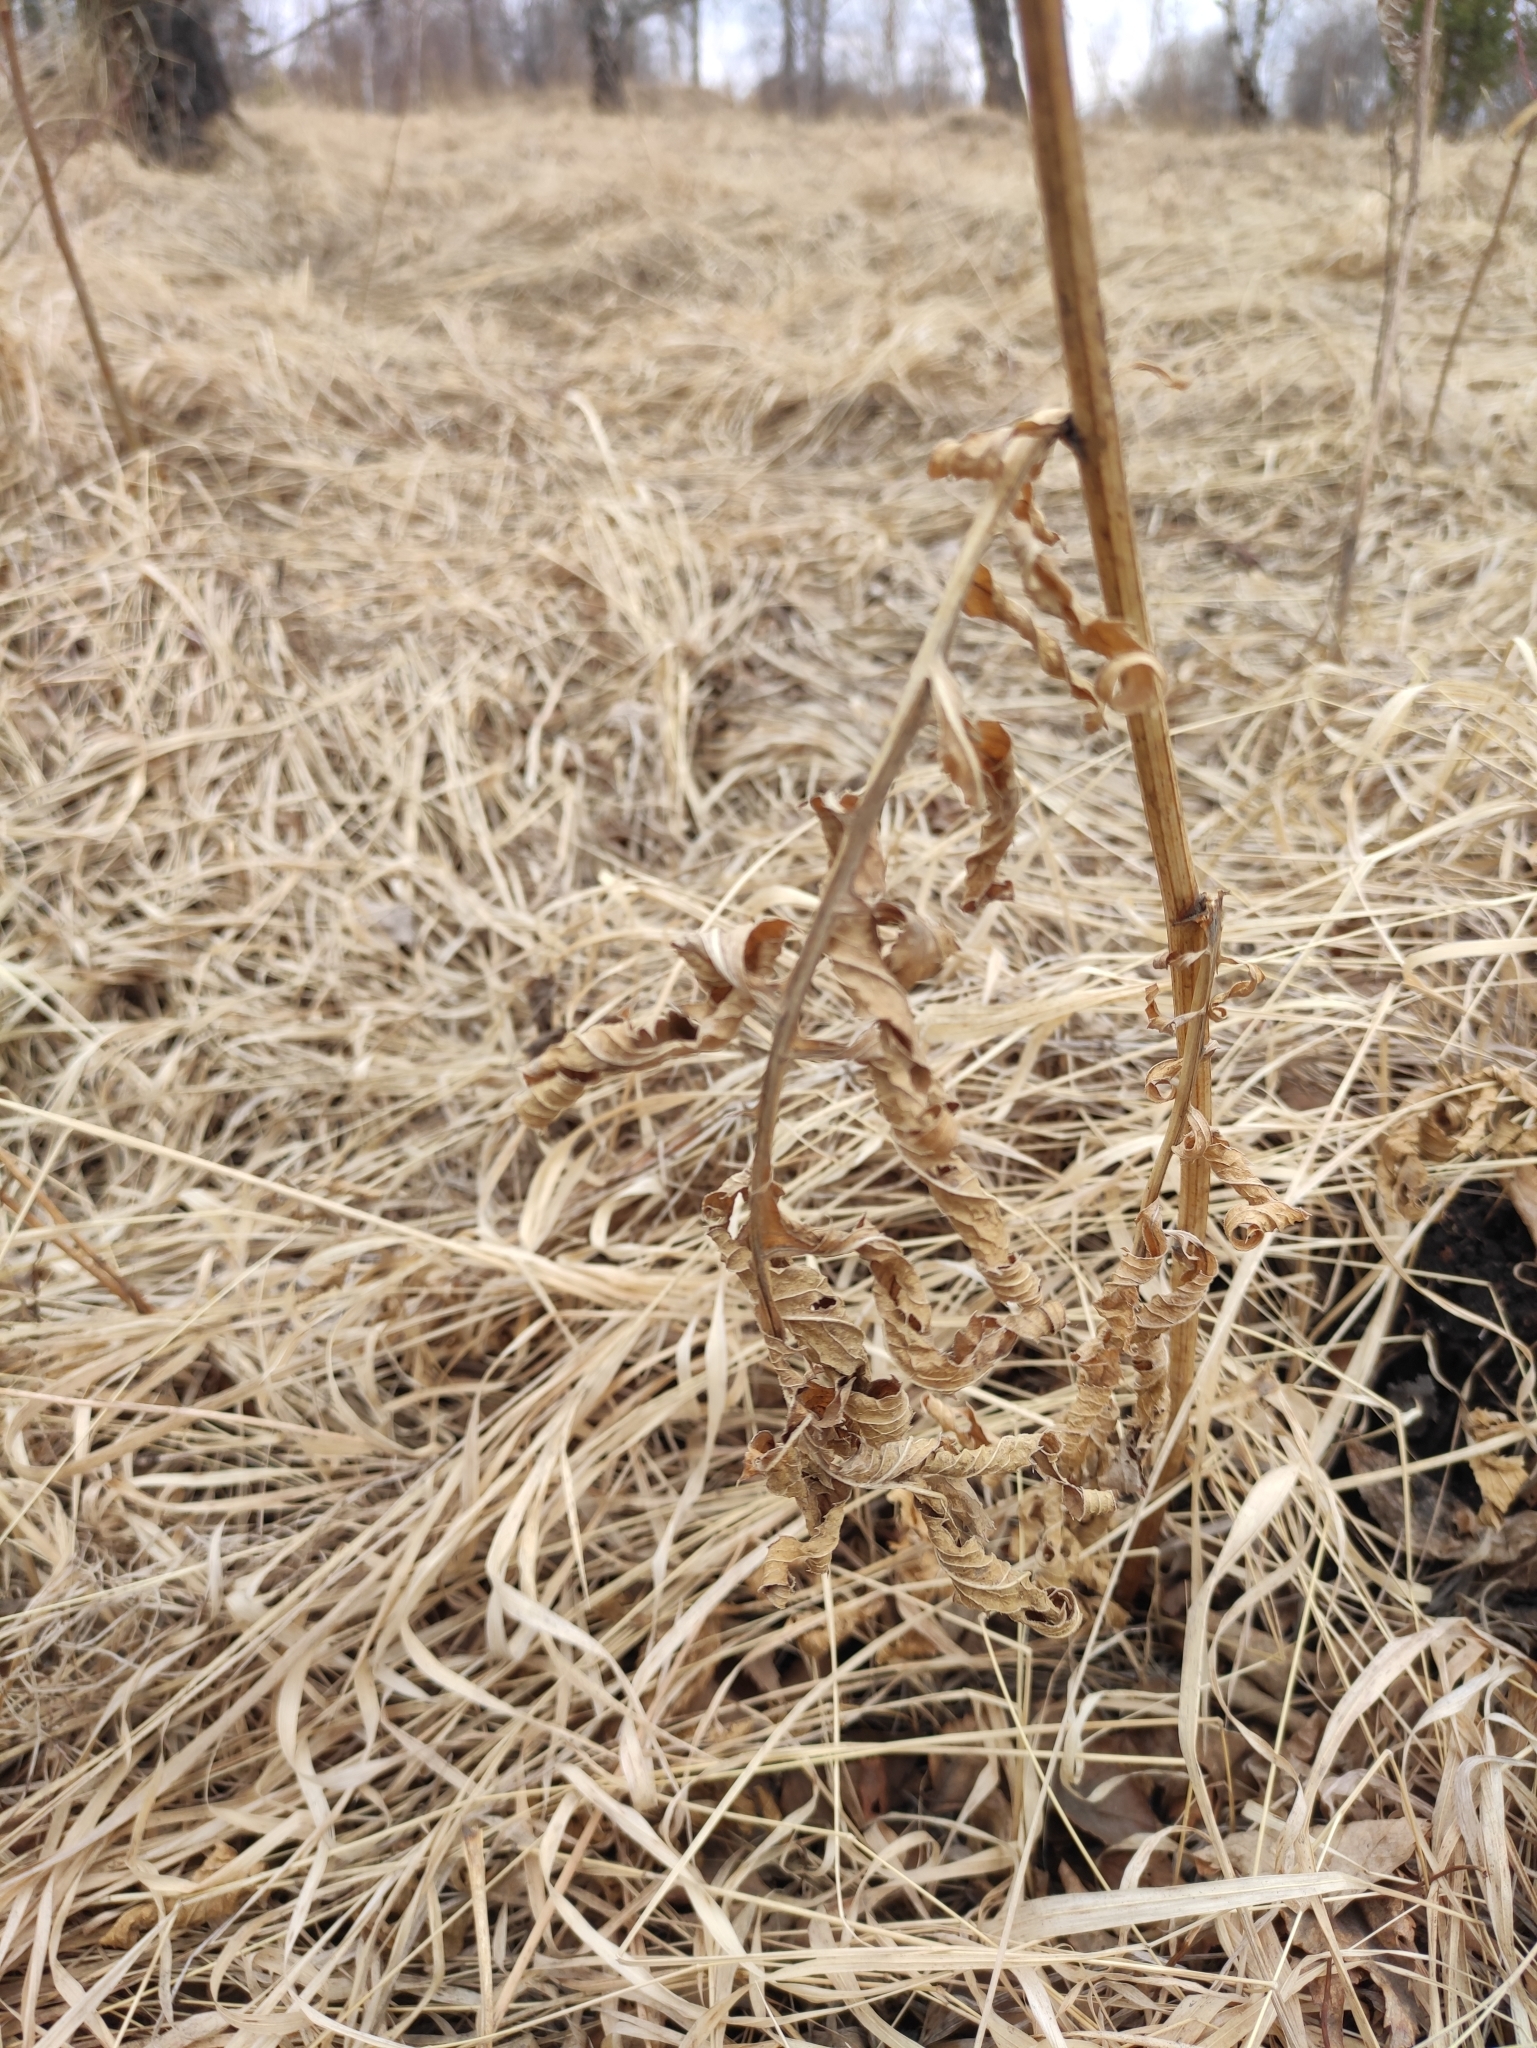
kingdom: Plantae
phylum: Tracheophyta
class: Magnoliopsida
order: Asterales
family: Asteraceae
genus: Serratula
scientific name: Serratula coronata
